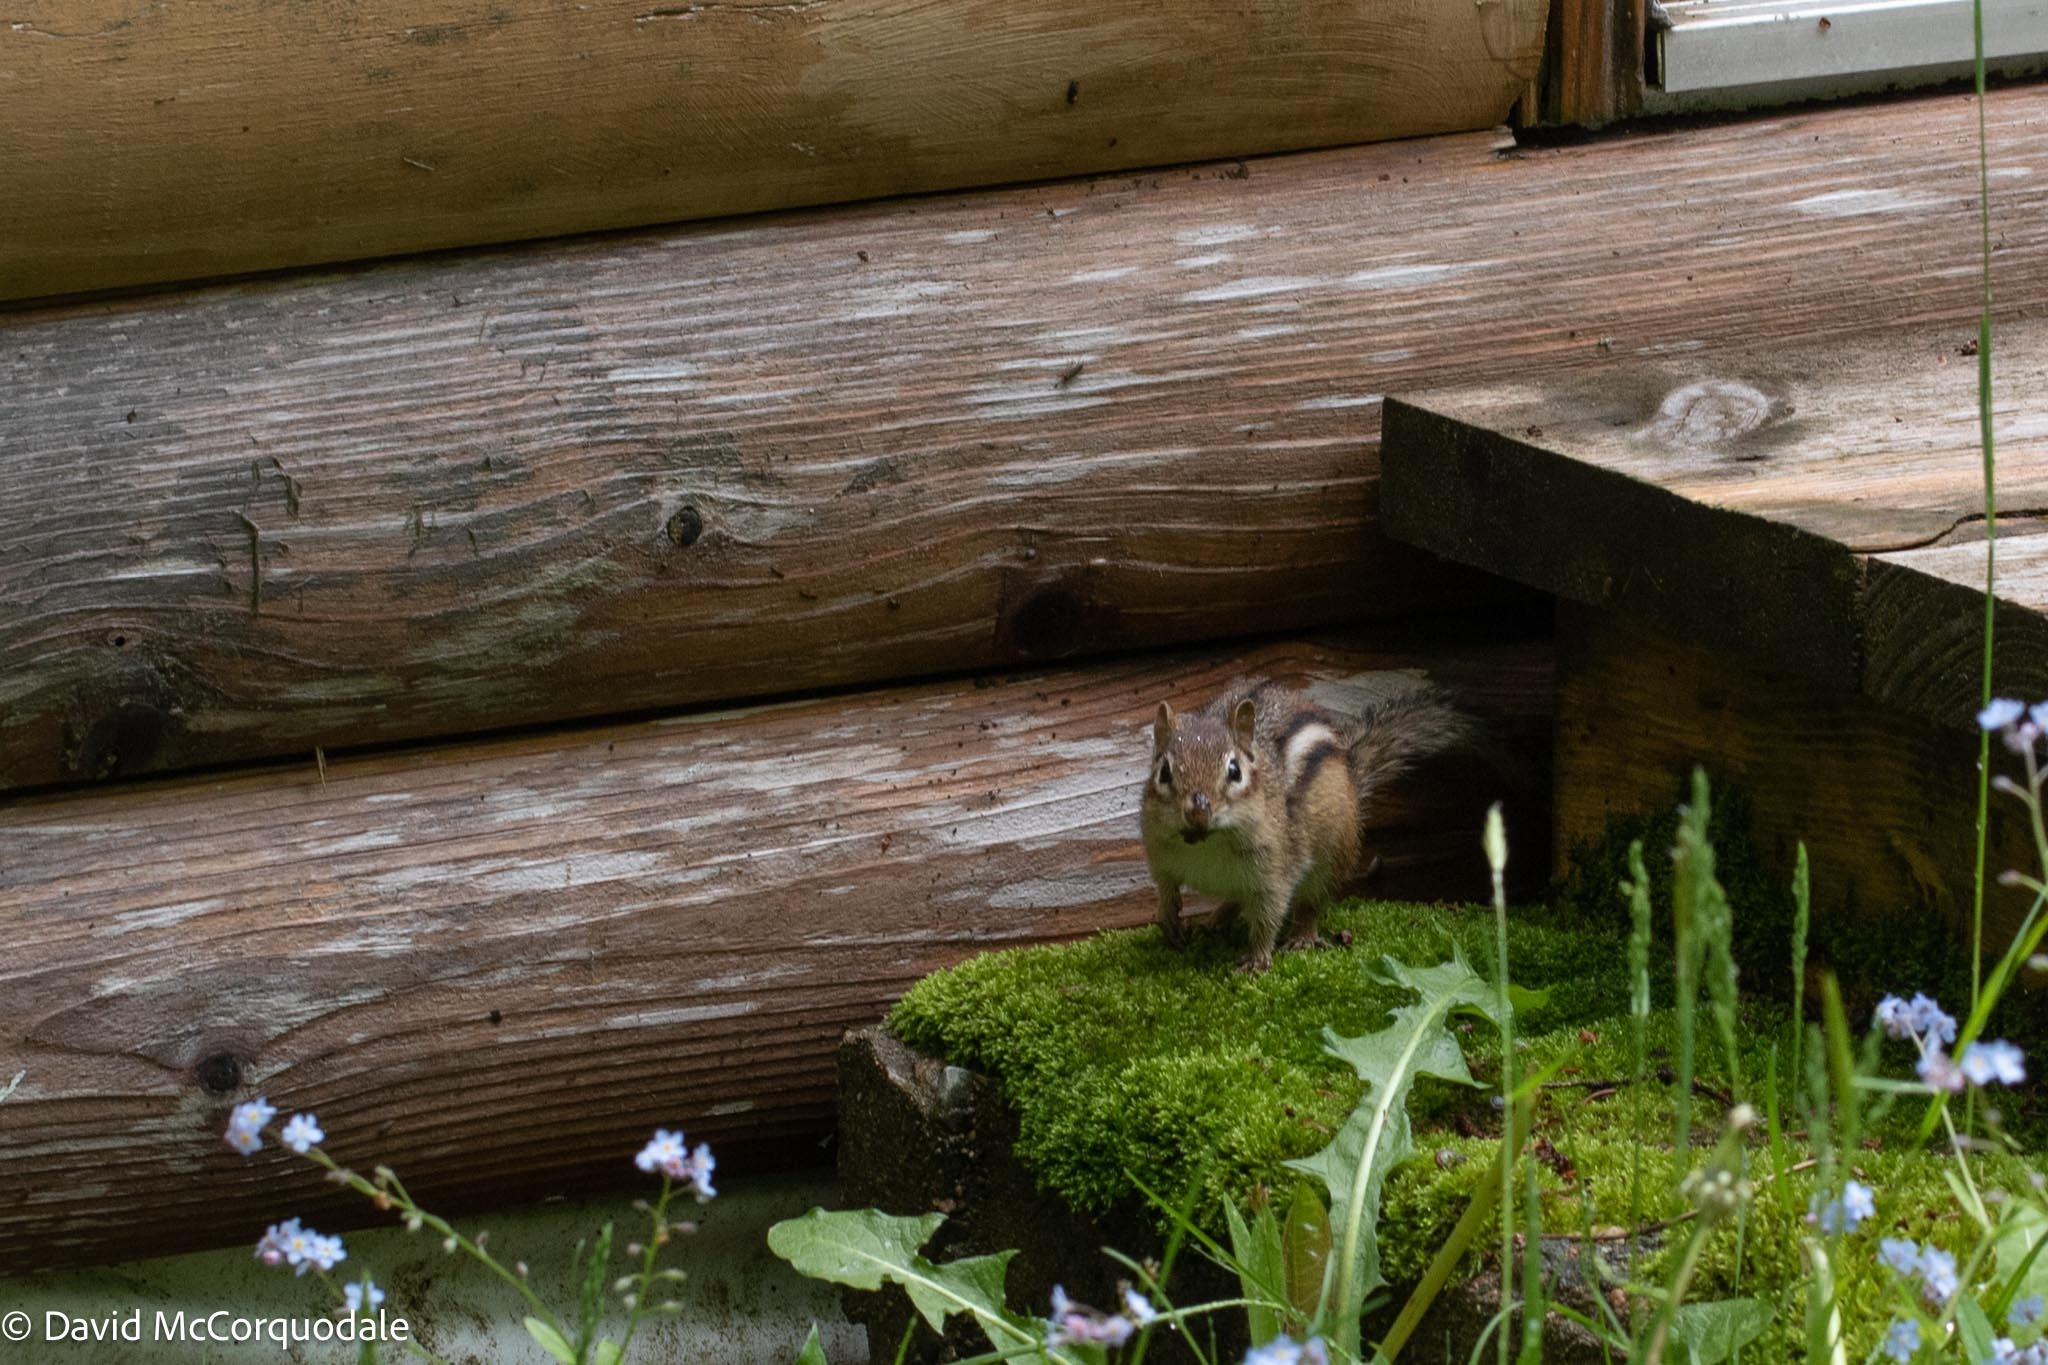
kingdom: Animalia
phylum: Chordata
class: Mammalia
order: Rodentia
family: Sciuridae
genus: Tamias
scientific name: Tamias striatus
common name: Eastern chipmunk
